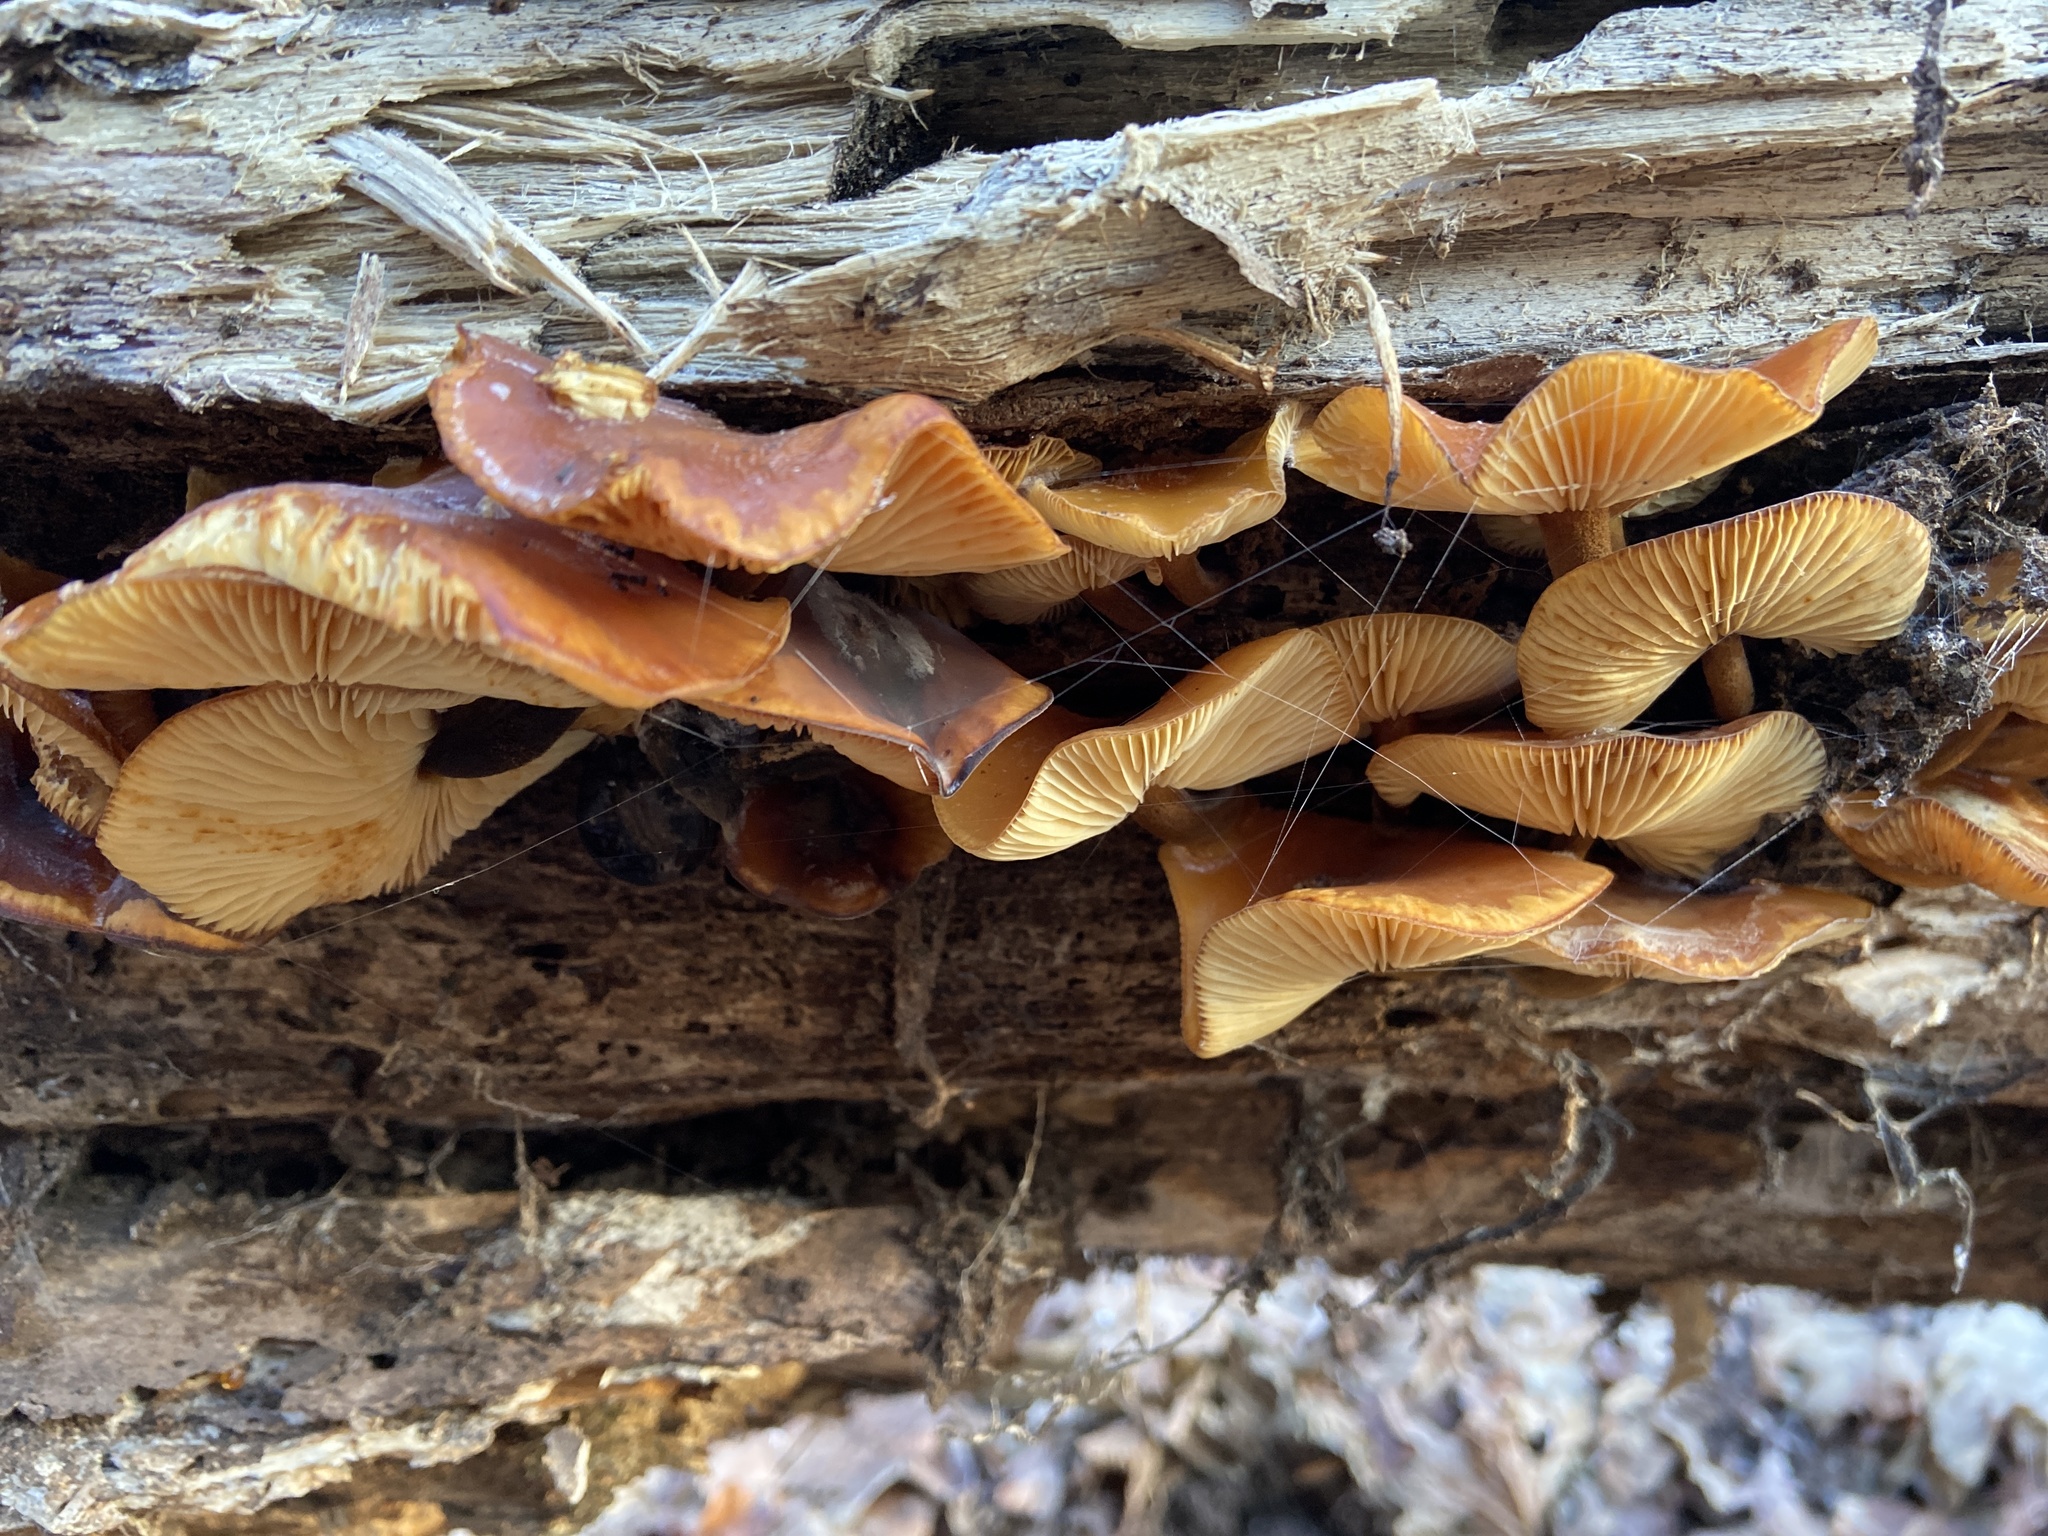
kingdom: Fungi
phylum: Basidiomycota
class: Agaricomycetes
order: Agaricales
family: Physalacriaceae
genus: Flammulina
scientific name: Flammulina
